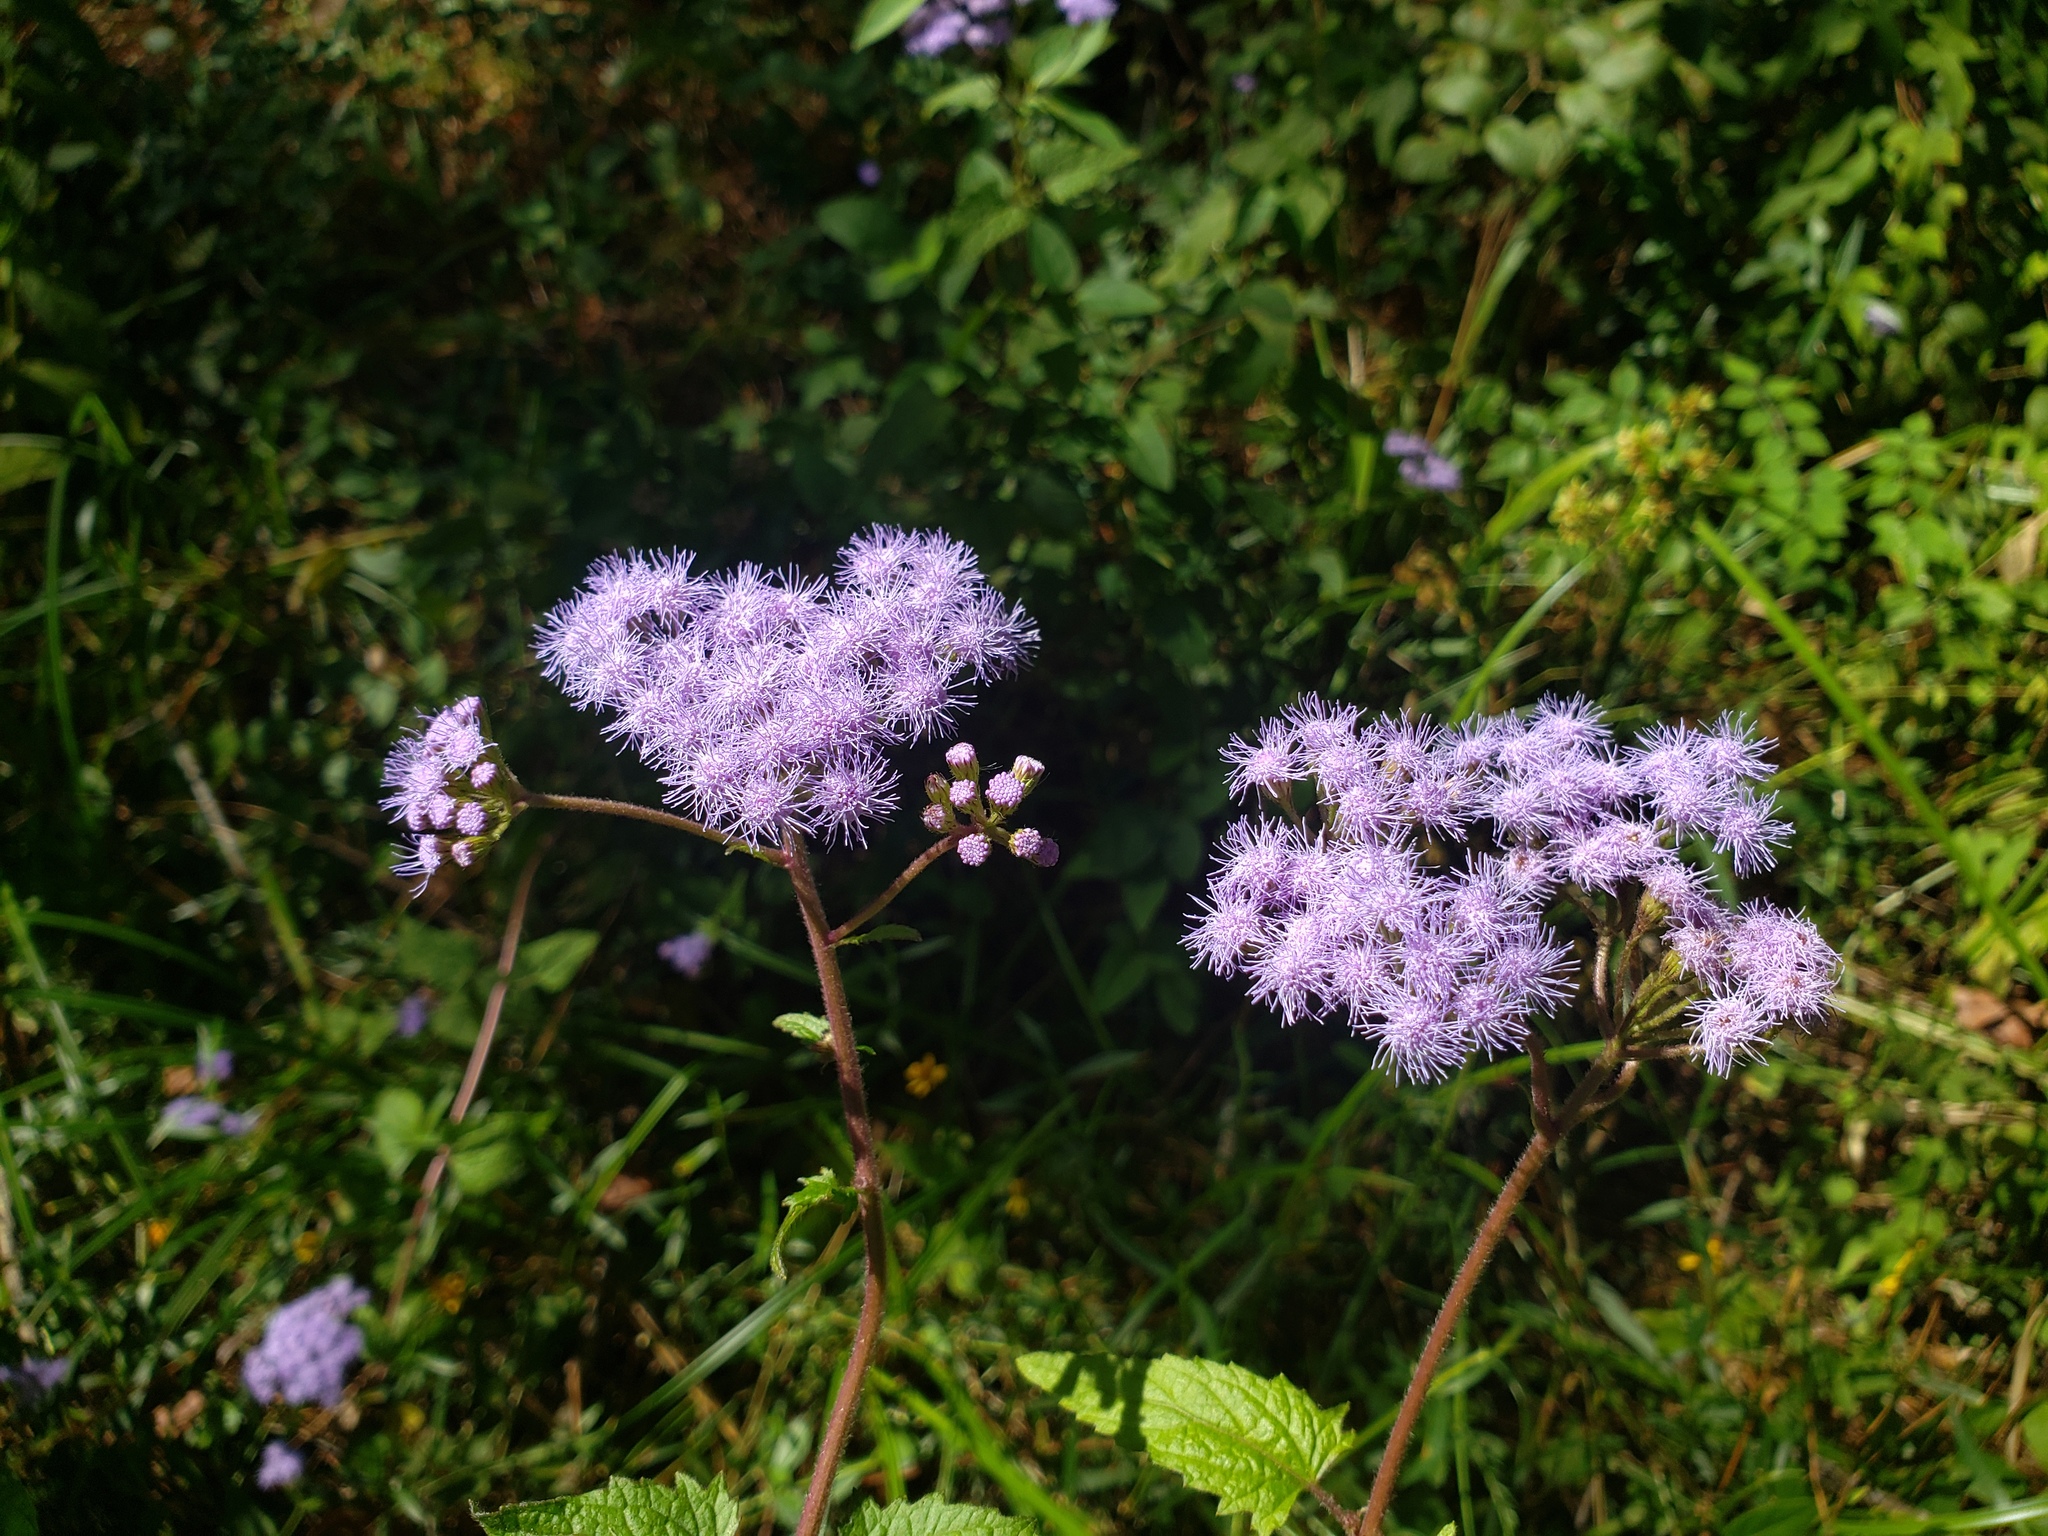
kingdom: Plantae
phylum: Tracheophyta
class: Magnoliopsida
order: Asterales
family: Asteraceae
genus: Conoclinium
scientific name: Conoclinium coelestinum
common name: Blue mistflower
